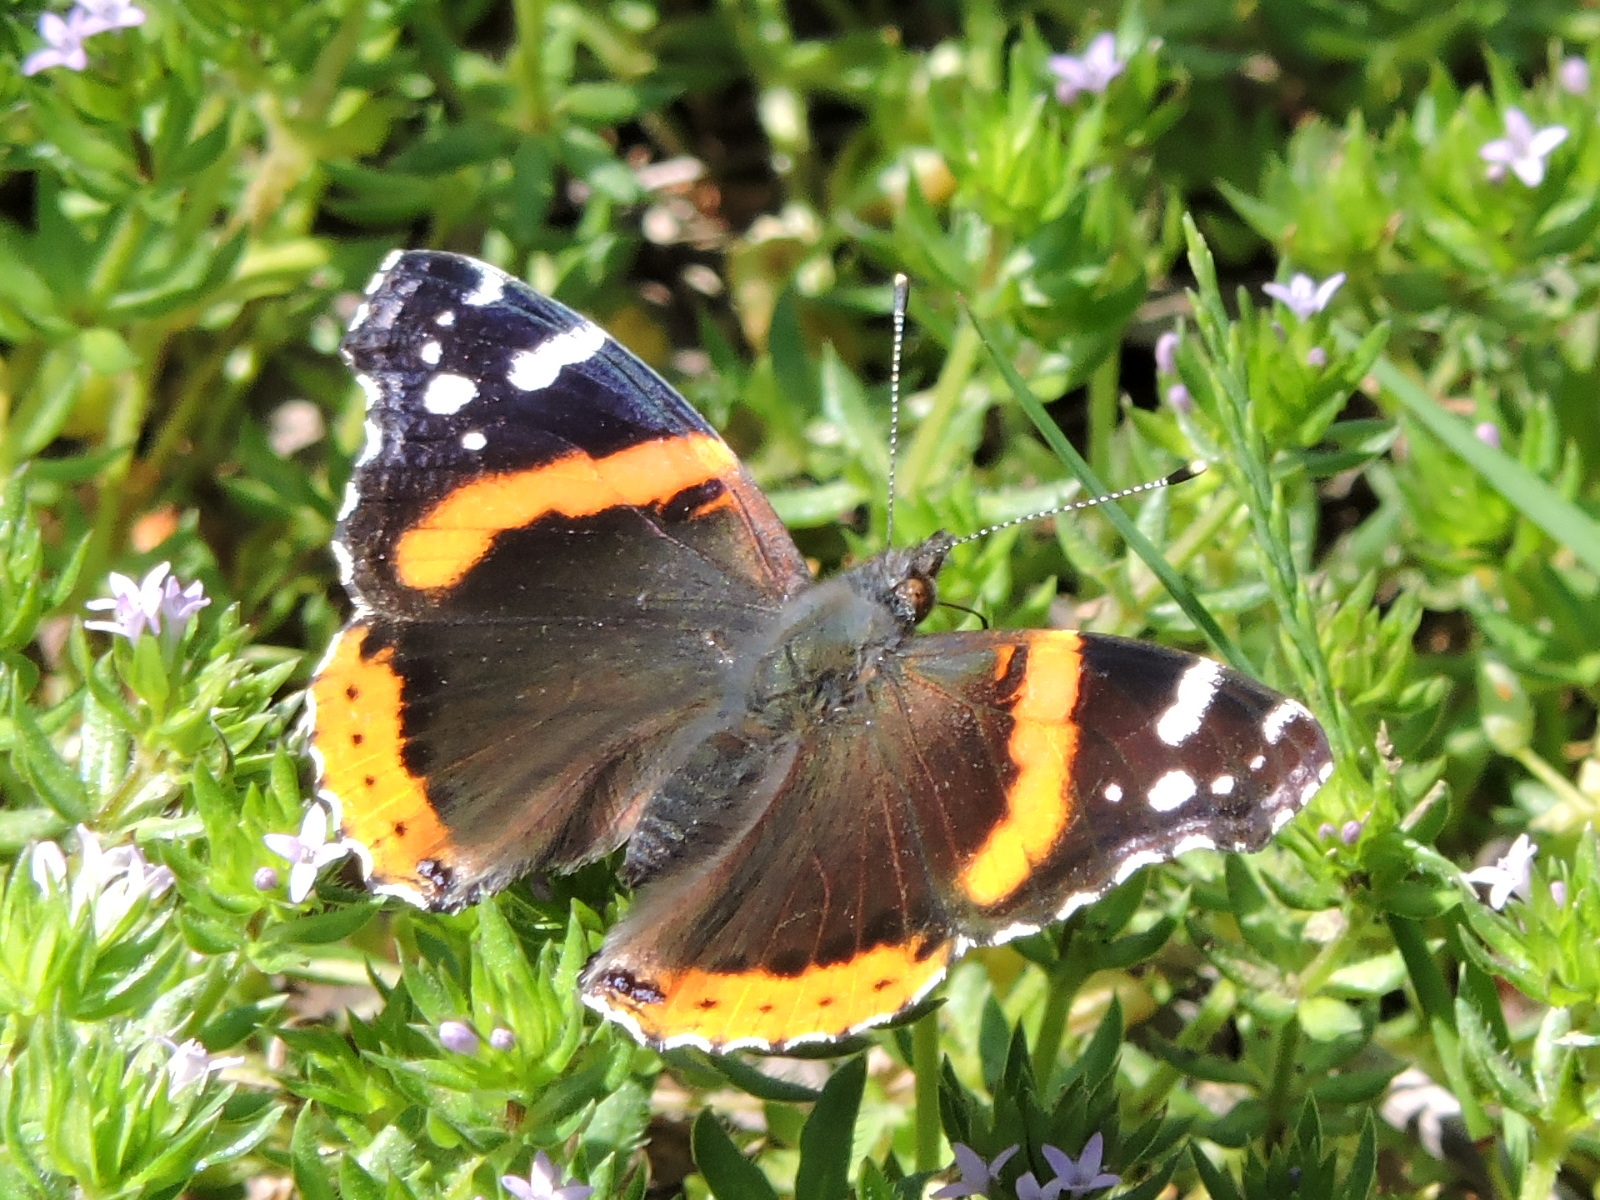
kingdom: Animalia
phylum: Arthropoda
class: Insecta
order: Lepidoptera
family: Nymphalidae
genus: Vanessa
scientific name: Vanessa atalanta
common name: Red admiral
